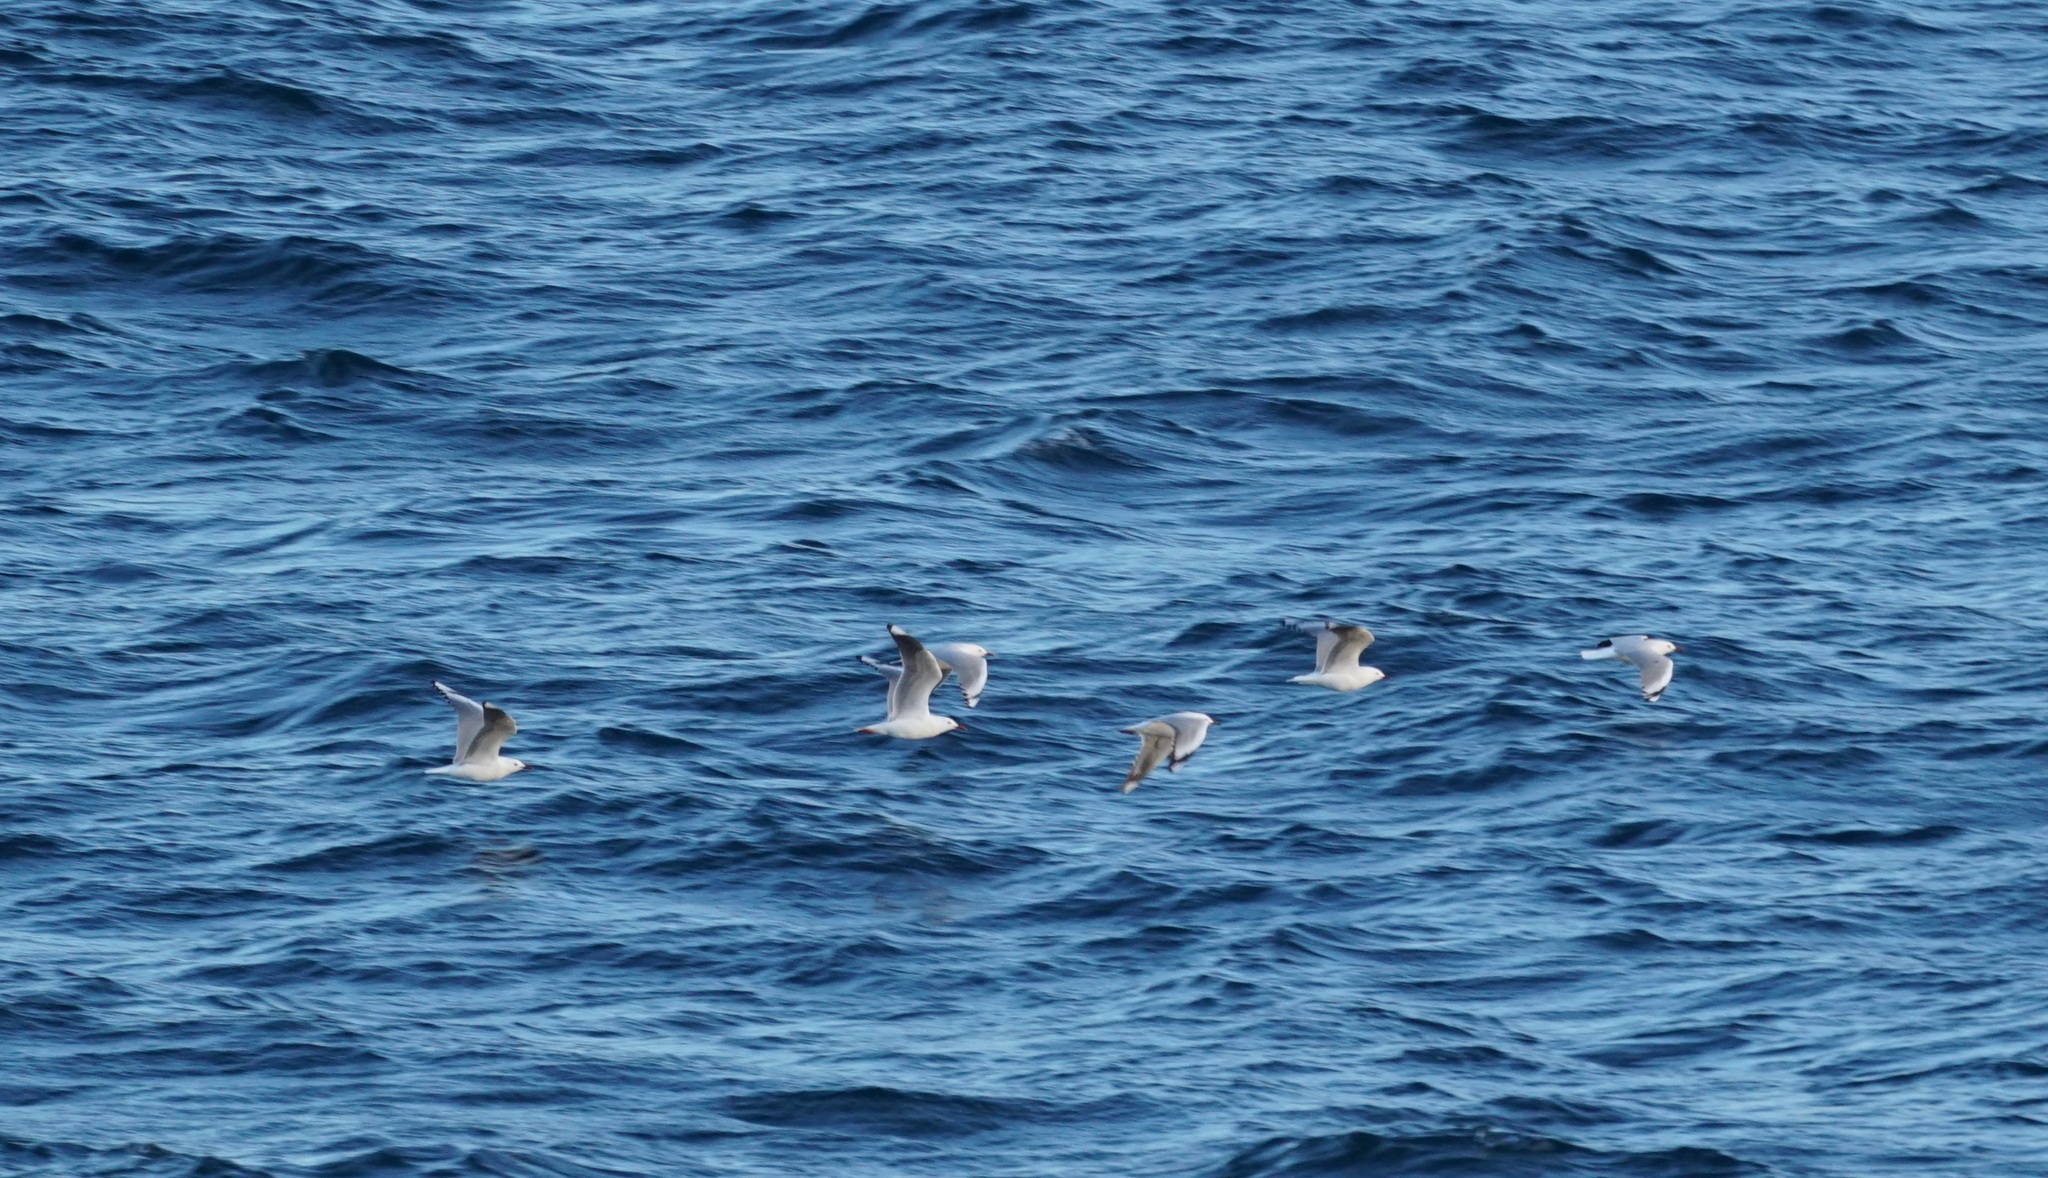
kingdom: Animalia
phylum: Chordata
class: Aves
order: Charadriiformes
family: Laridae
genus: Chroicocephalus
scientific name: Chroicocephalus novaehollandiae
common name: Silver gull
